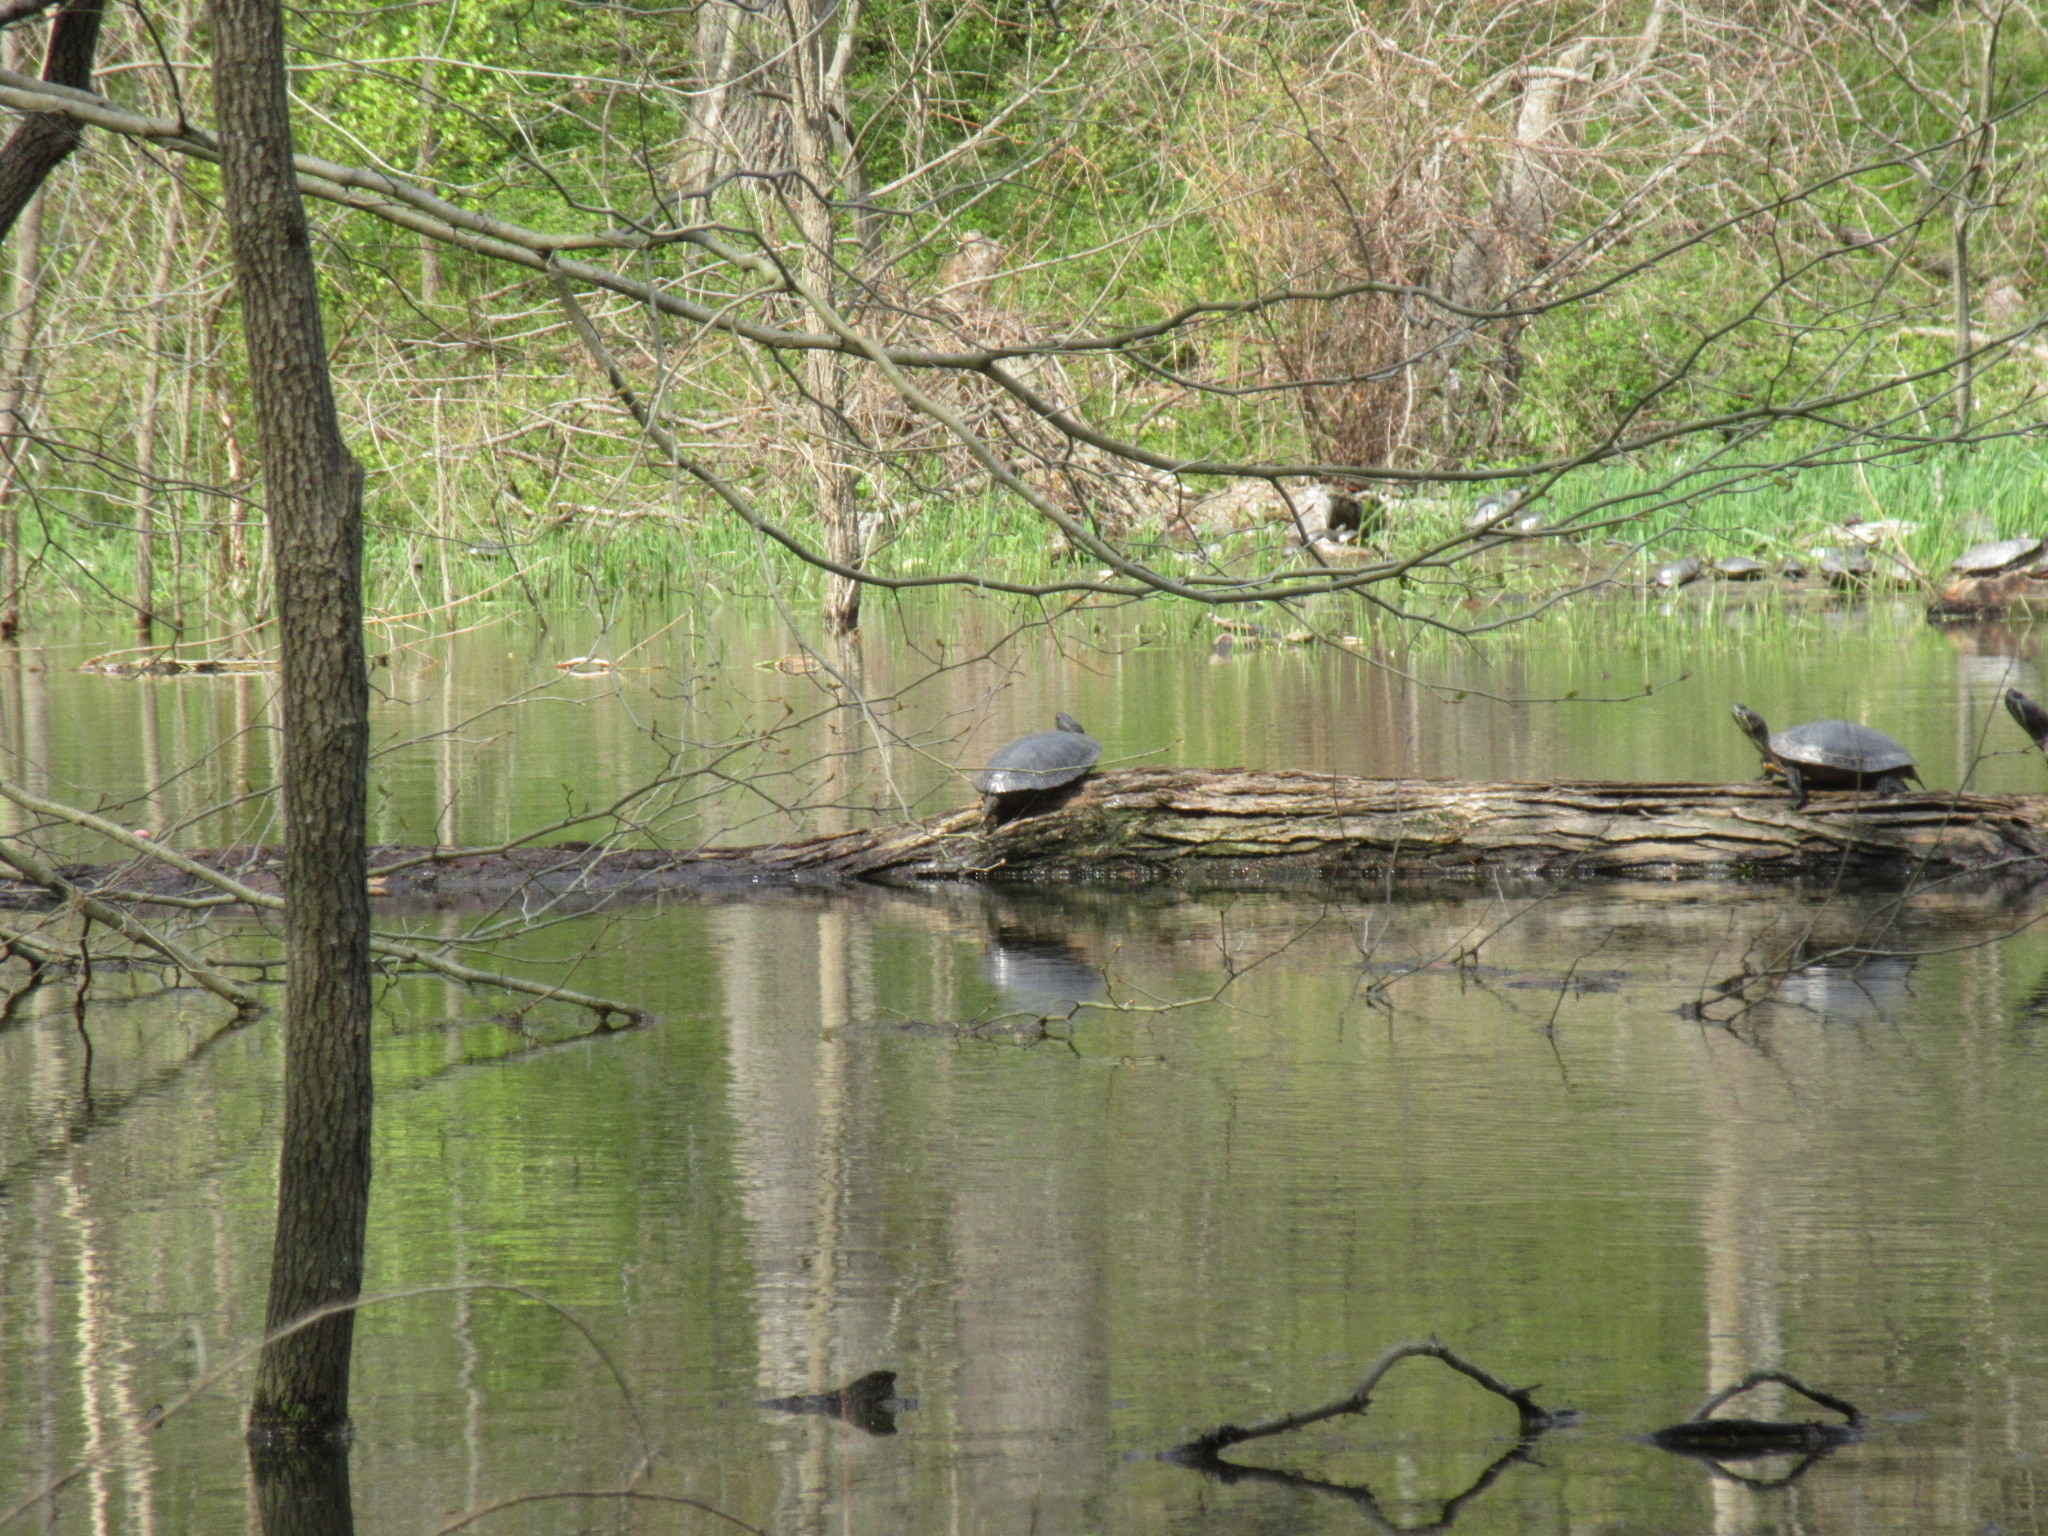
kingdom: Animalia
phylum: Chordata
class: Testudines
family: Emydidae
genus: Trachemys
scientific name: Trachemys scripta
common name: Slider
